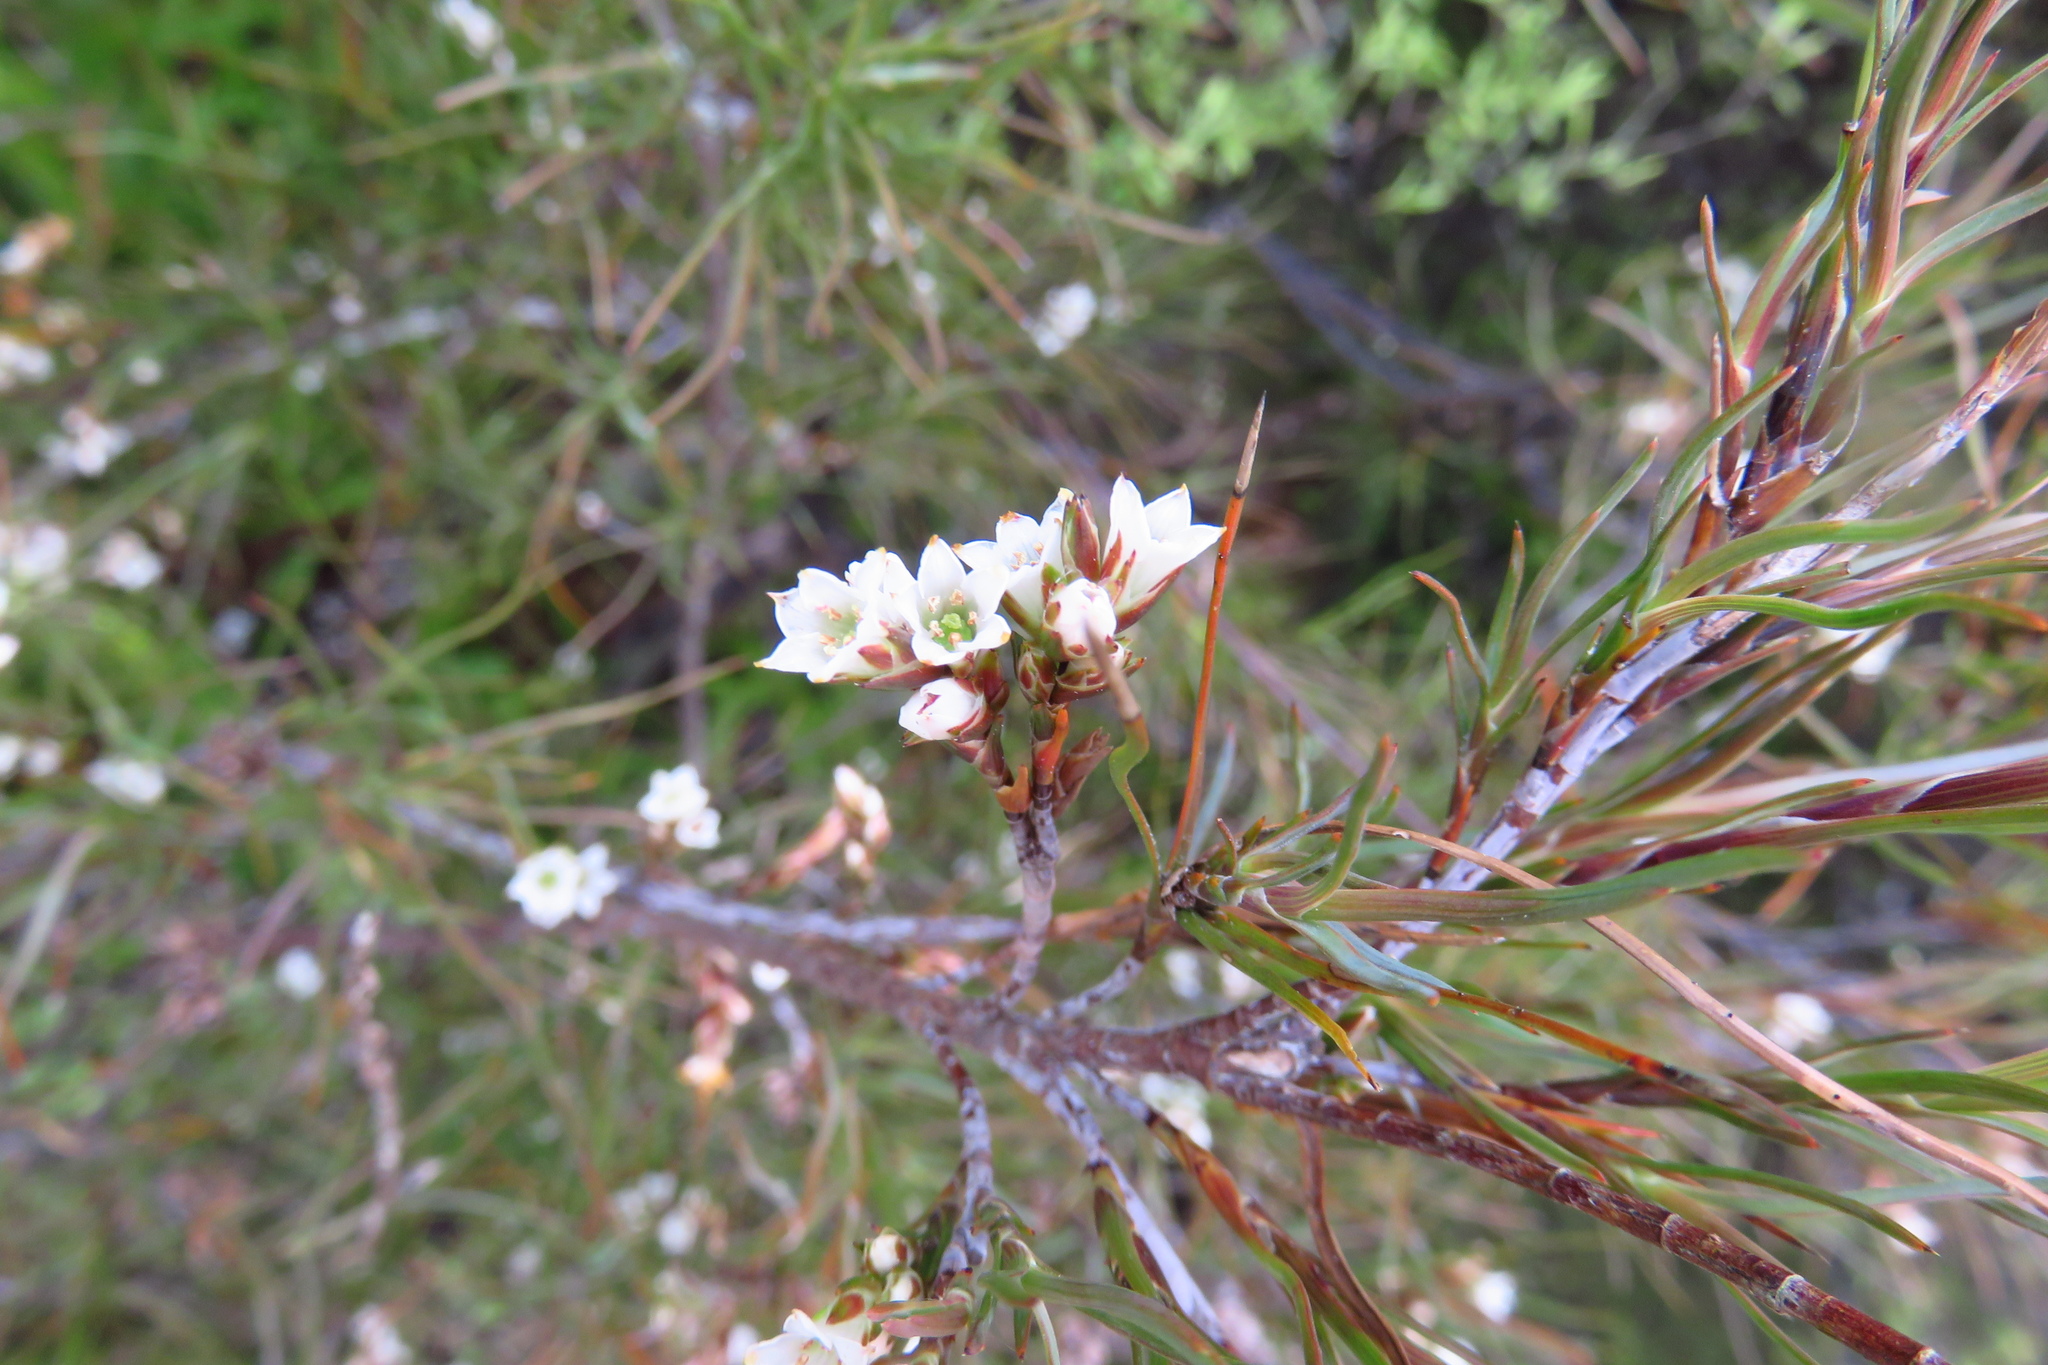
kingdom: Plantae
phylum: Tracheophyta
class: Magnoliopsida
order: Ericales
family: Ericaceae
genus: Dracophyllum
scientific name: Dracophyllum subulatum
